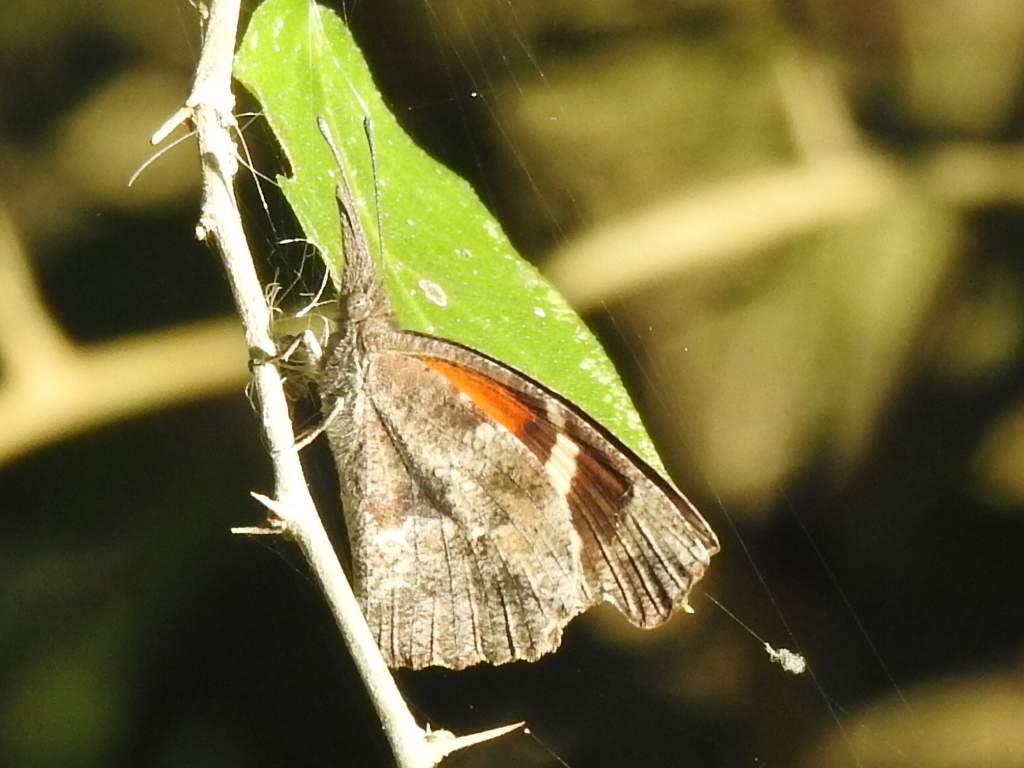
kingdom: Animalia
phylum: Arthropoda
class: Insecta
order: Lepidoptera
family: Nymphalidae
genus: Libytheana
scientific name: Libytheana carinenta
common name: American snout
